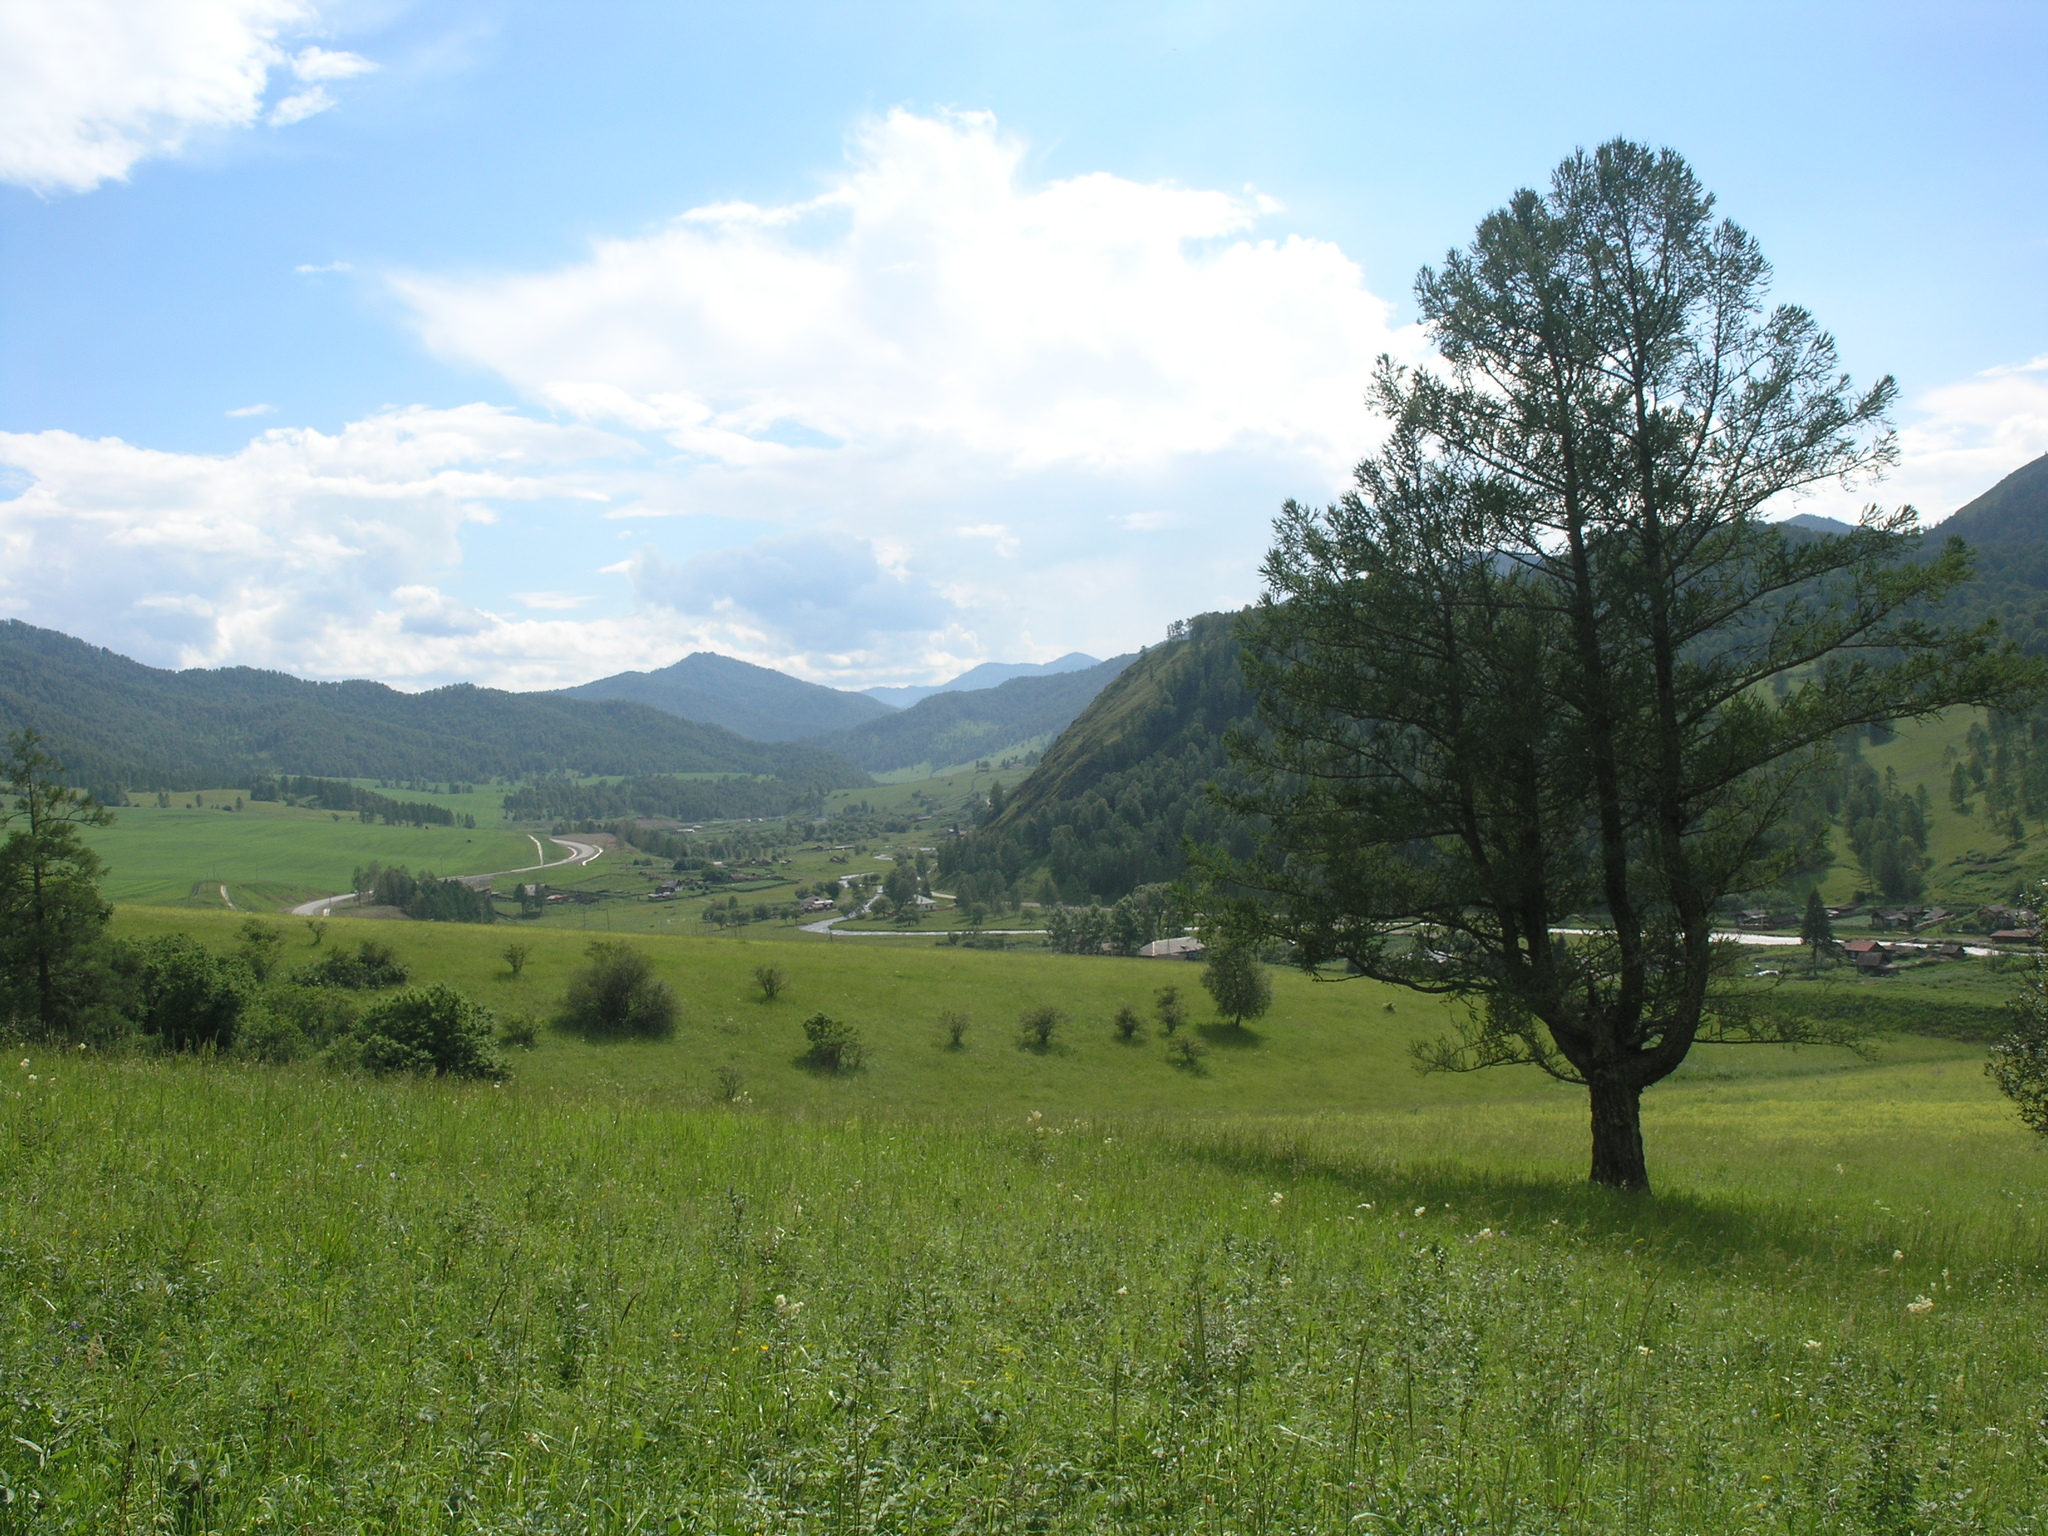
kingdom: Plantae
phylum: Tracheophyta
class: Pinopsida
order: Pinales
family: Pinaceae
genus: Larix
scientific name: Larix sibirica
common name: Siberian larch
